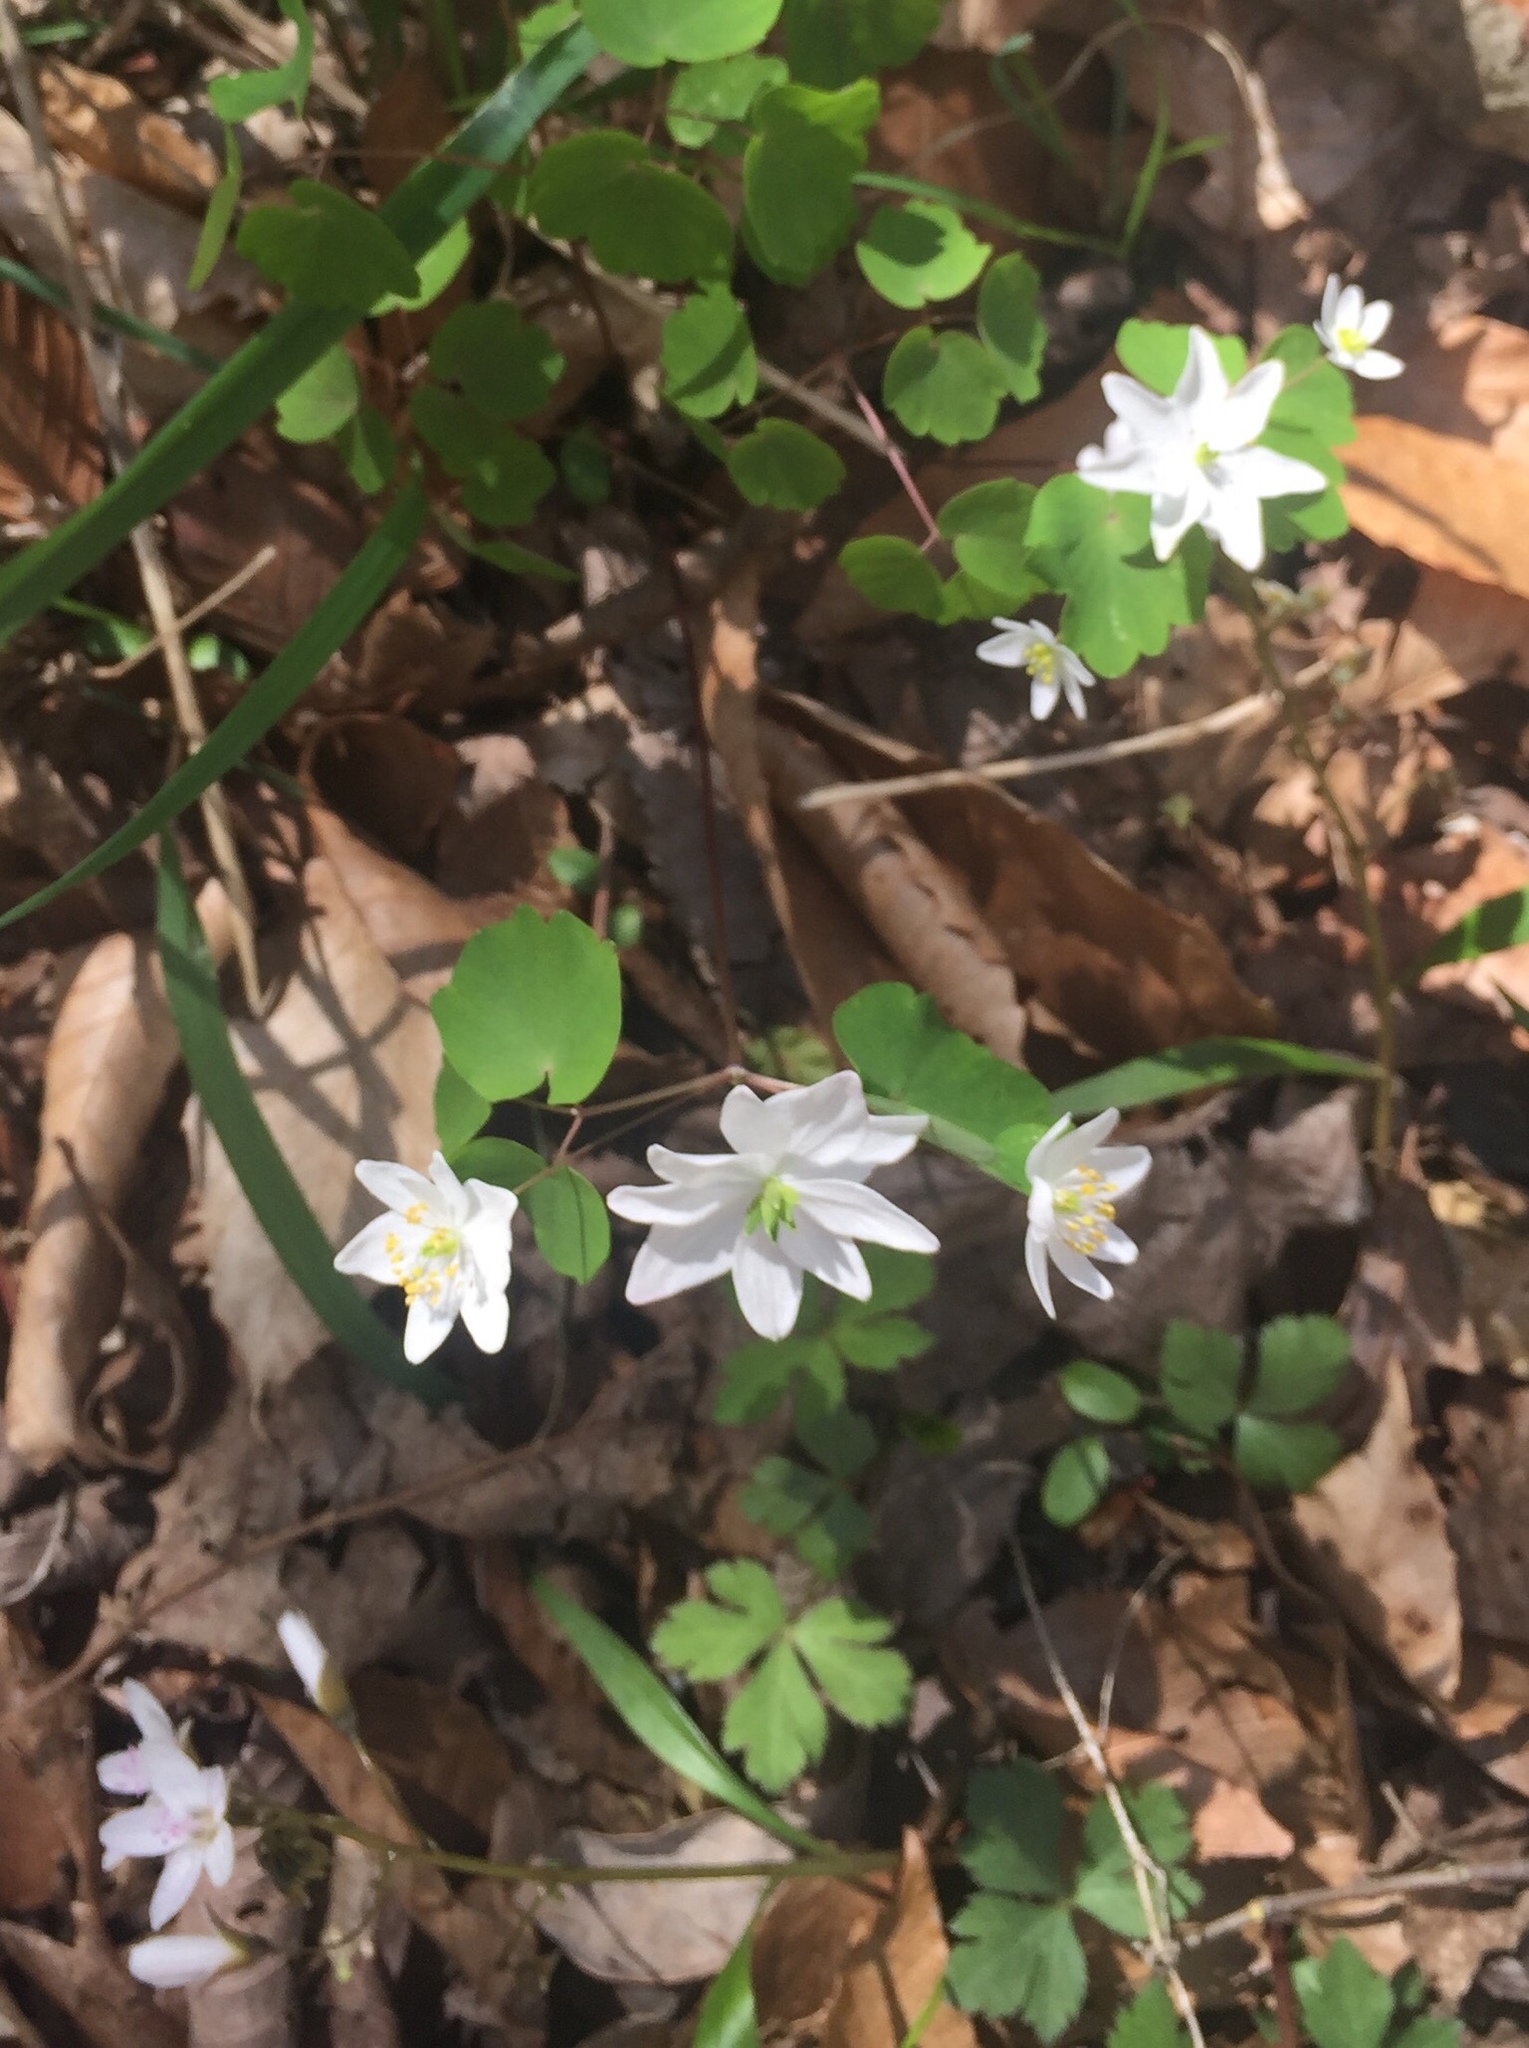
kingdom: Plantae
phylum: Tracheophyta
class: Magnoliopsida
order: Ranunculales
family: Ranunculaceae
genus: Thalictrum
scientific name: Thalictrum thalictroides
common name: Rue-anemone
